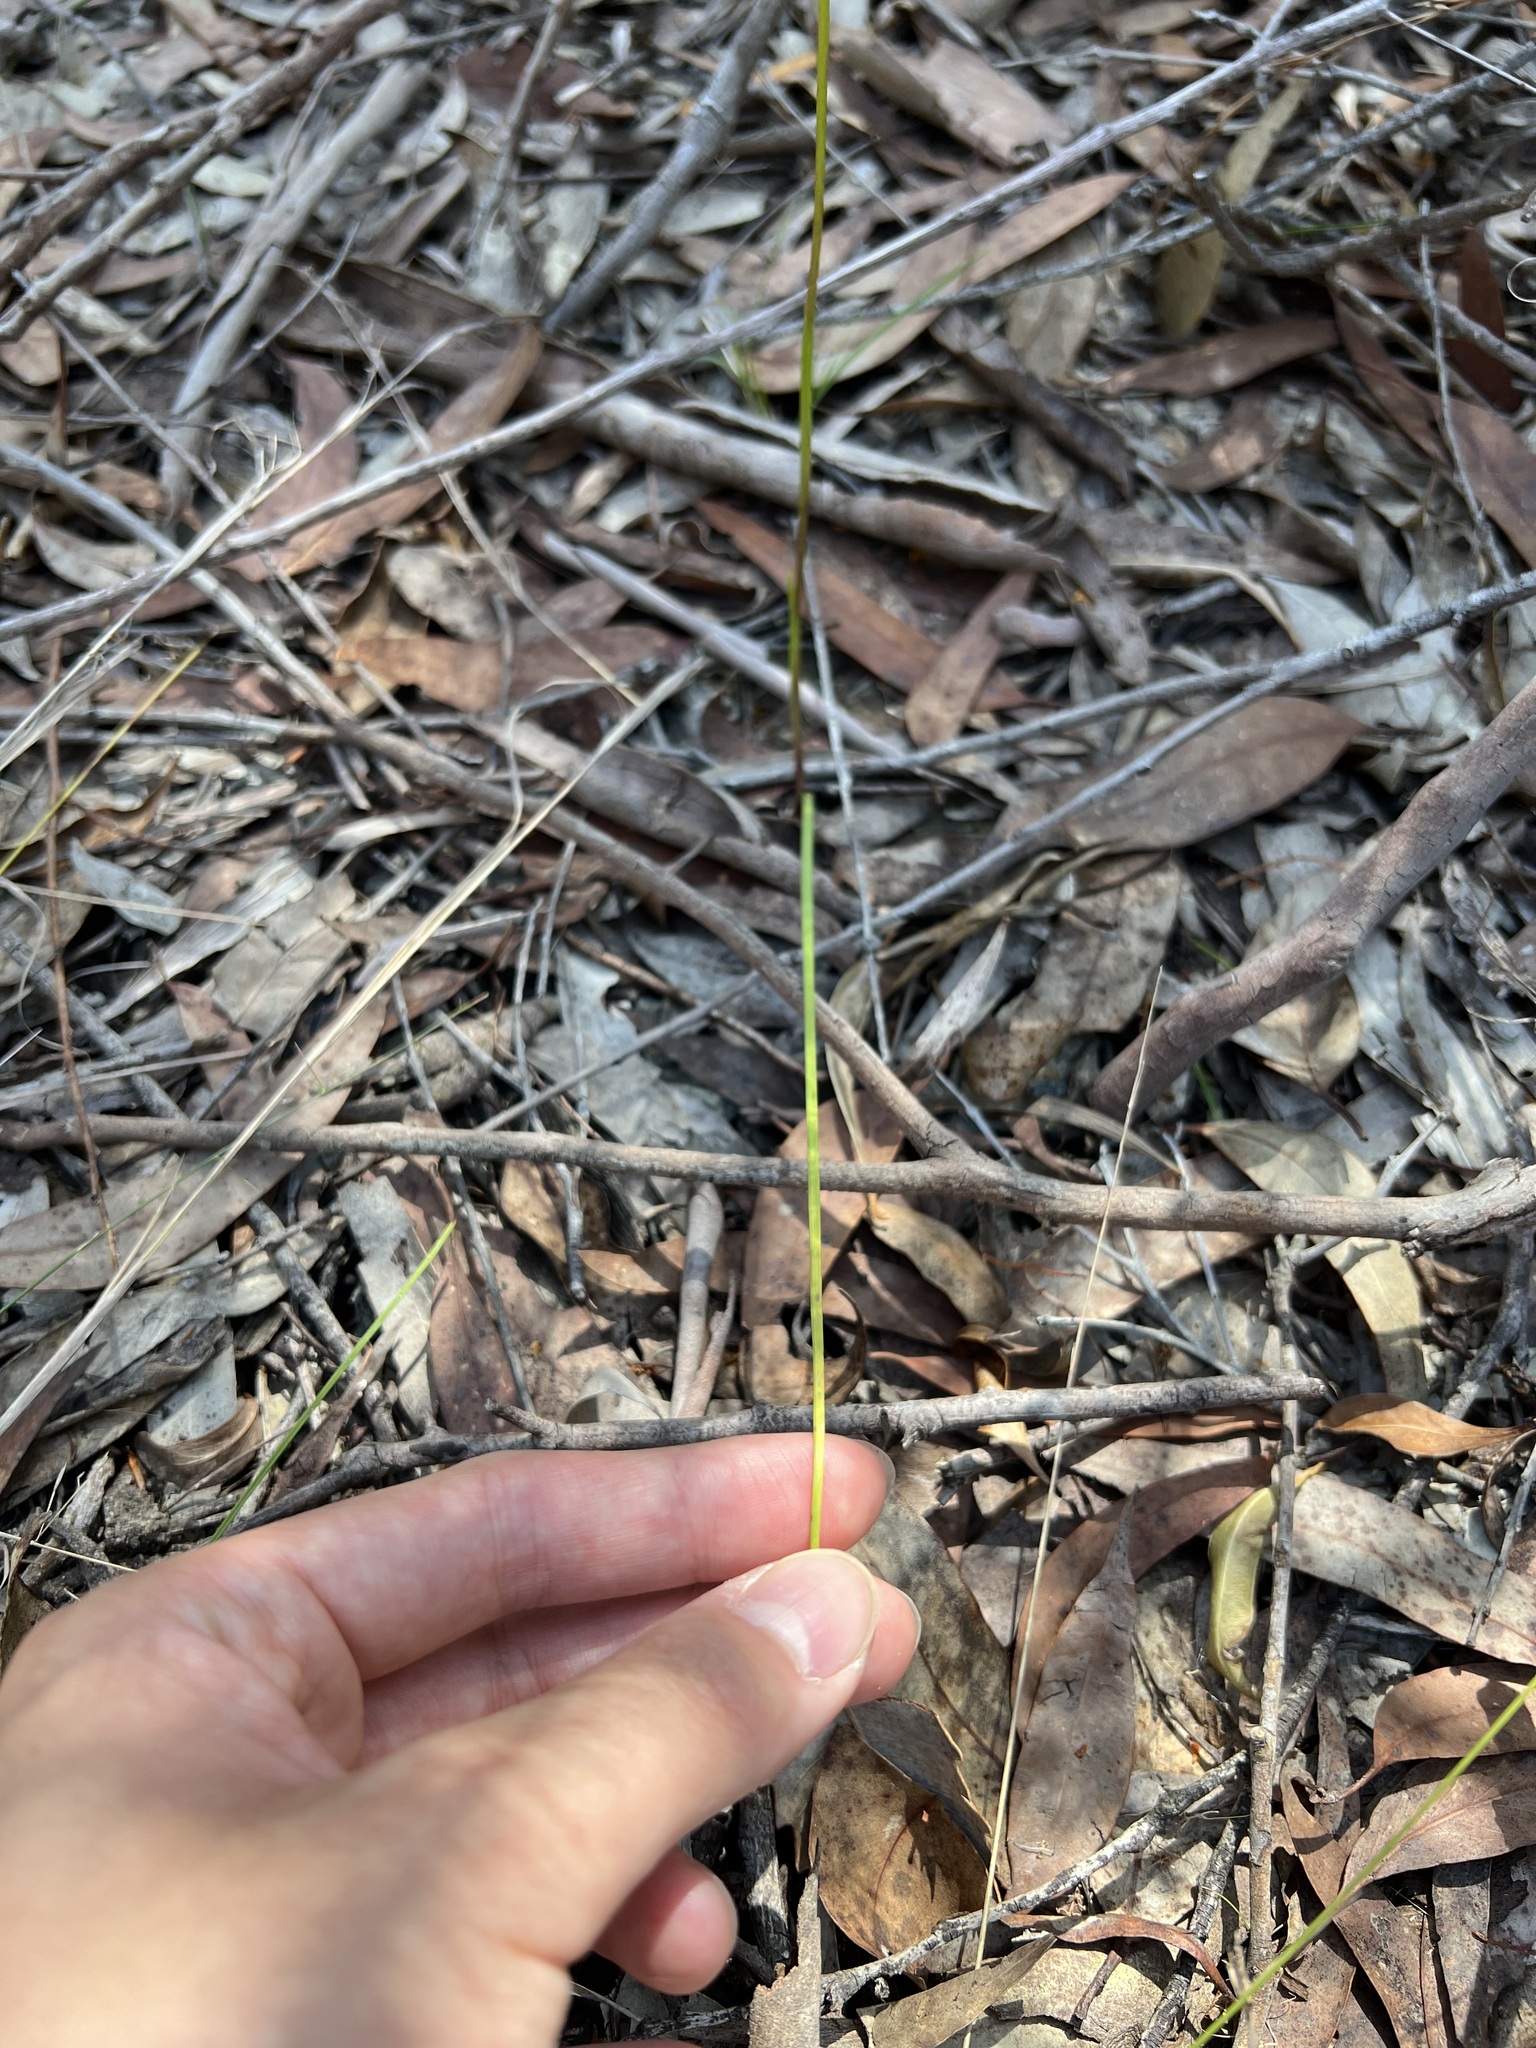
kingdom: Plantae
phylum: Tracheophyta
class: Liliopsida
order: Asparagales
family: Orchidaceae
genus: Diuris
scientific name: Diuris aurea
